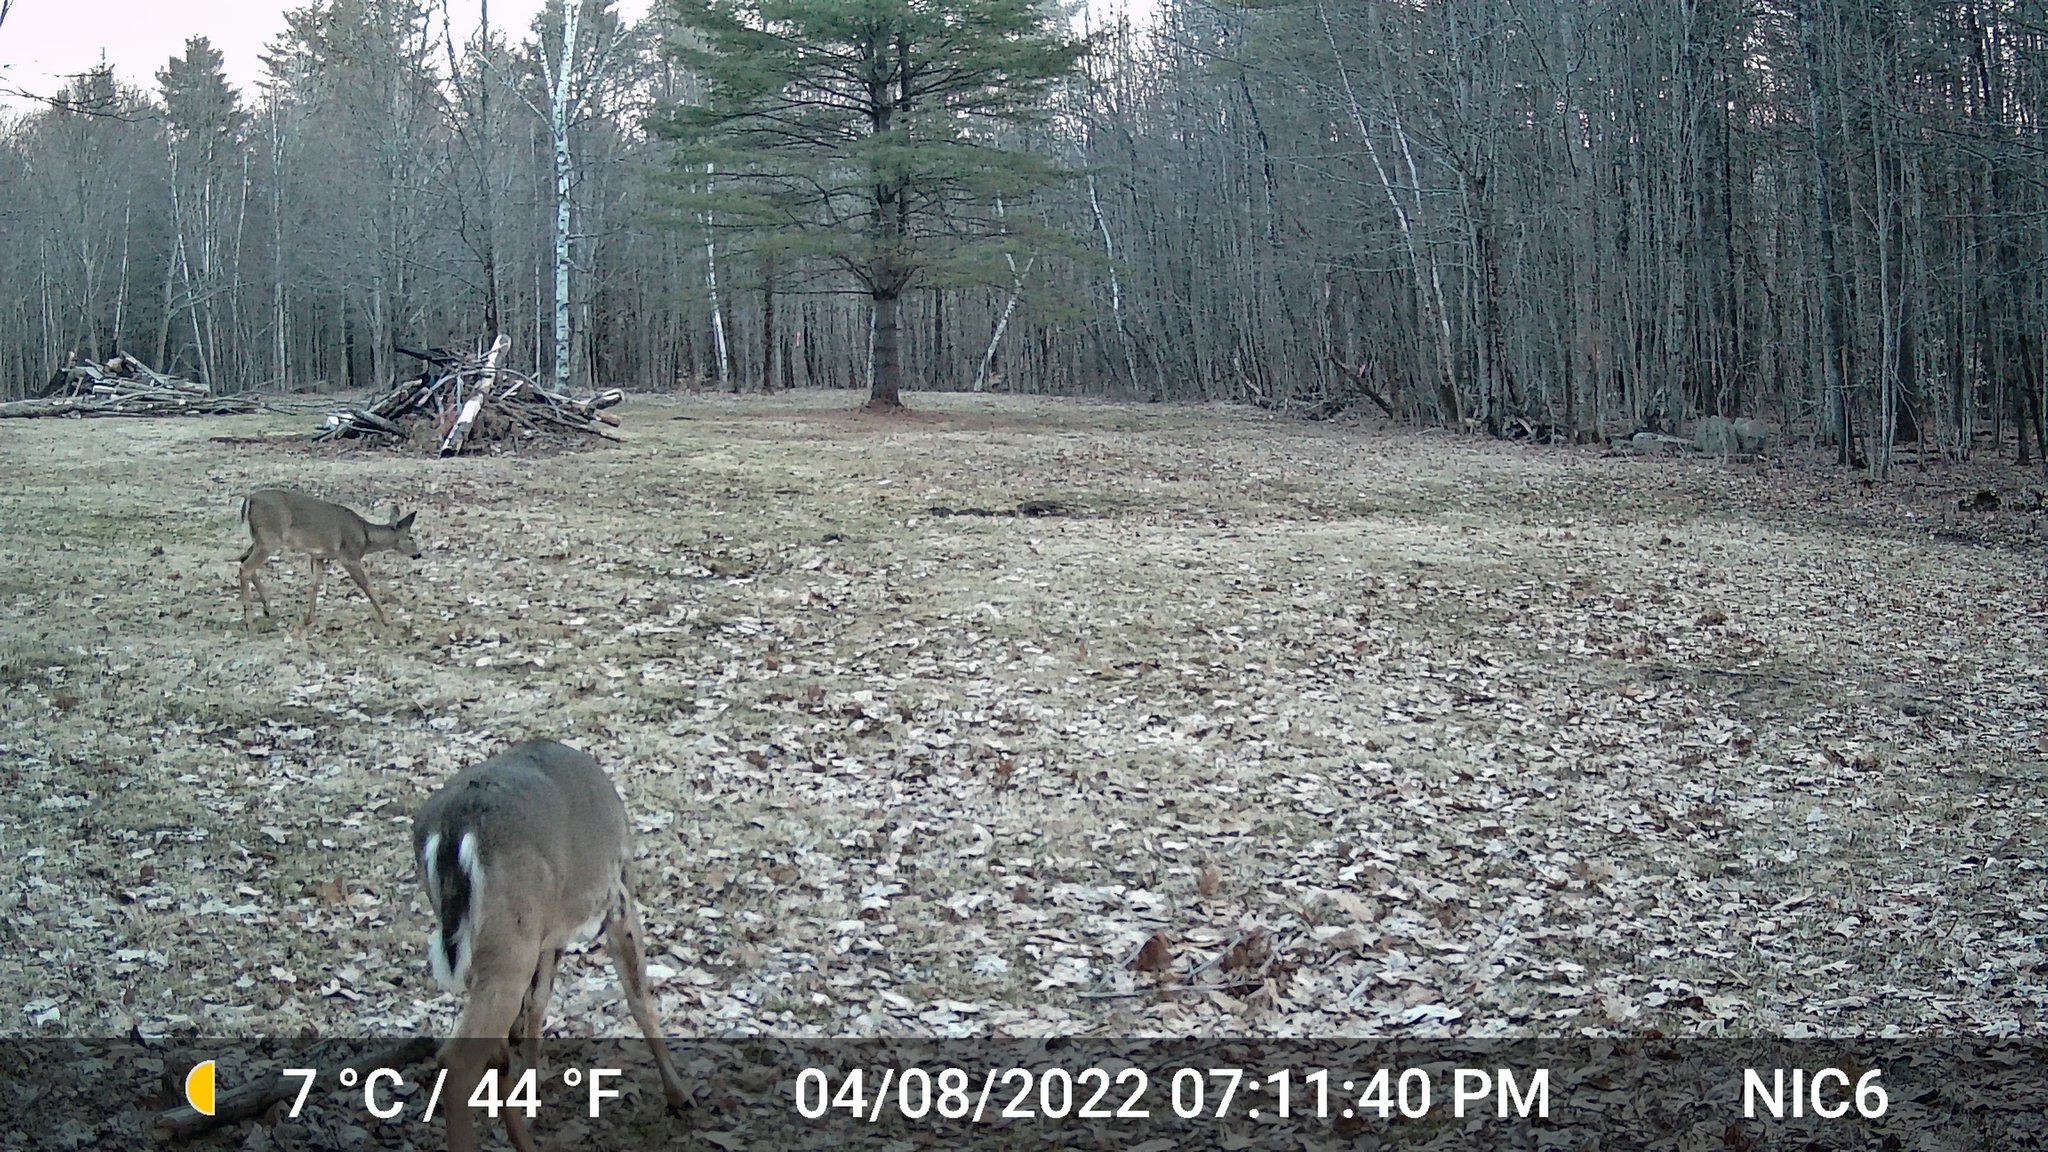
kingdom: Animalia
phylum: Chordata
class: Mammalia
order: Artiodactyla
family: Cervidae
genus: Odocoileus
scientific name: Odocoileus virginianus
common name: White-tailed deer
